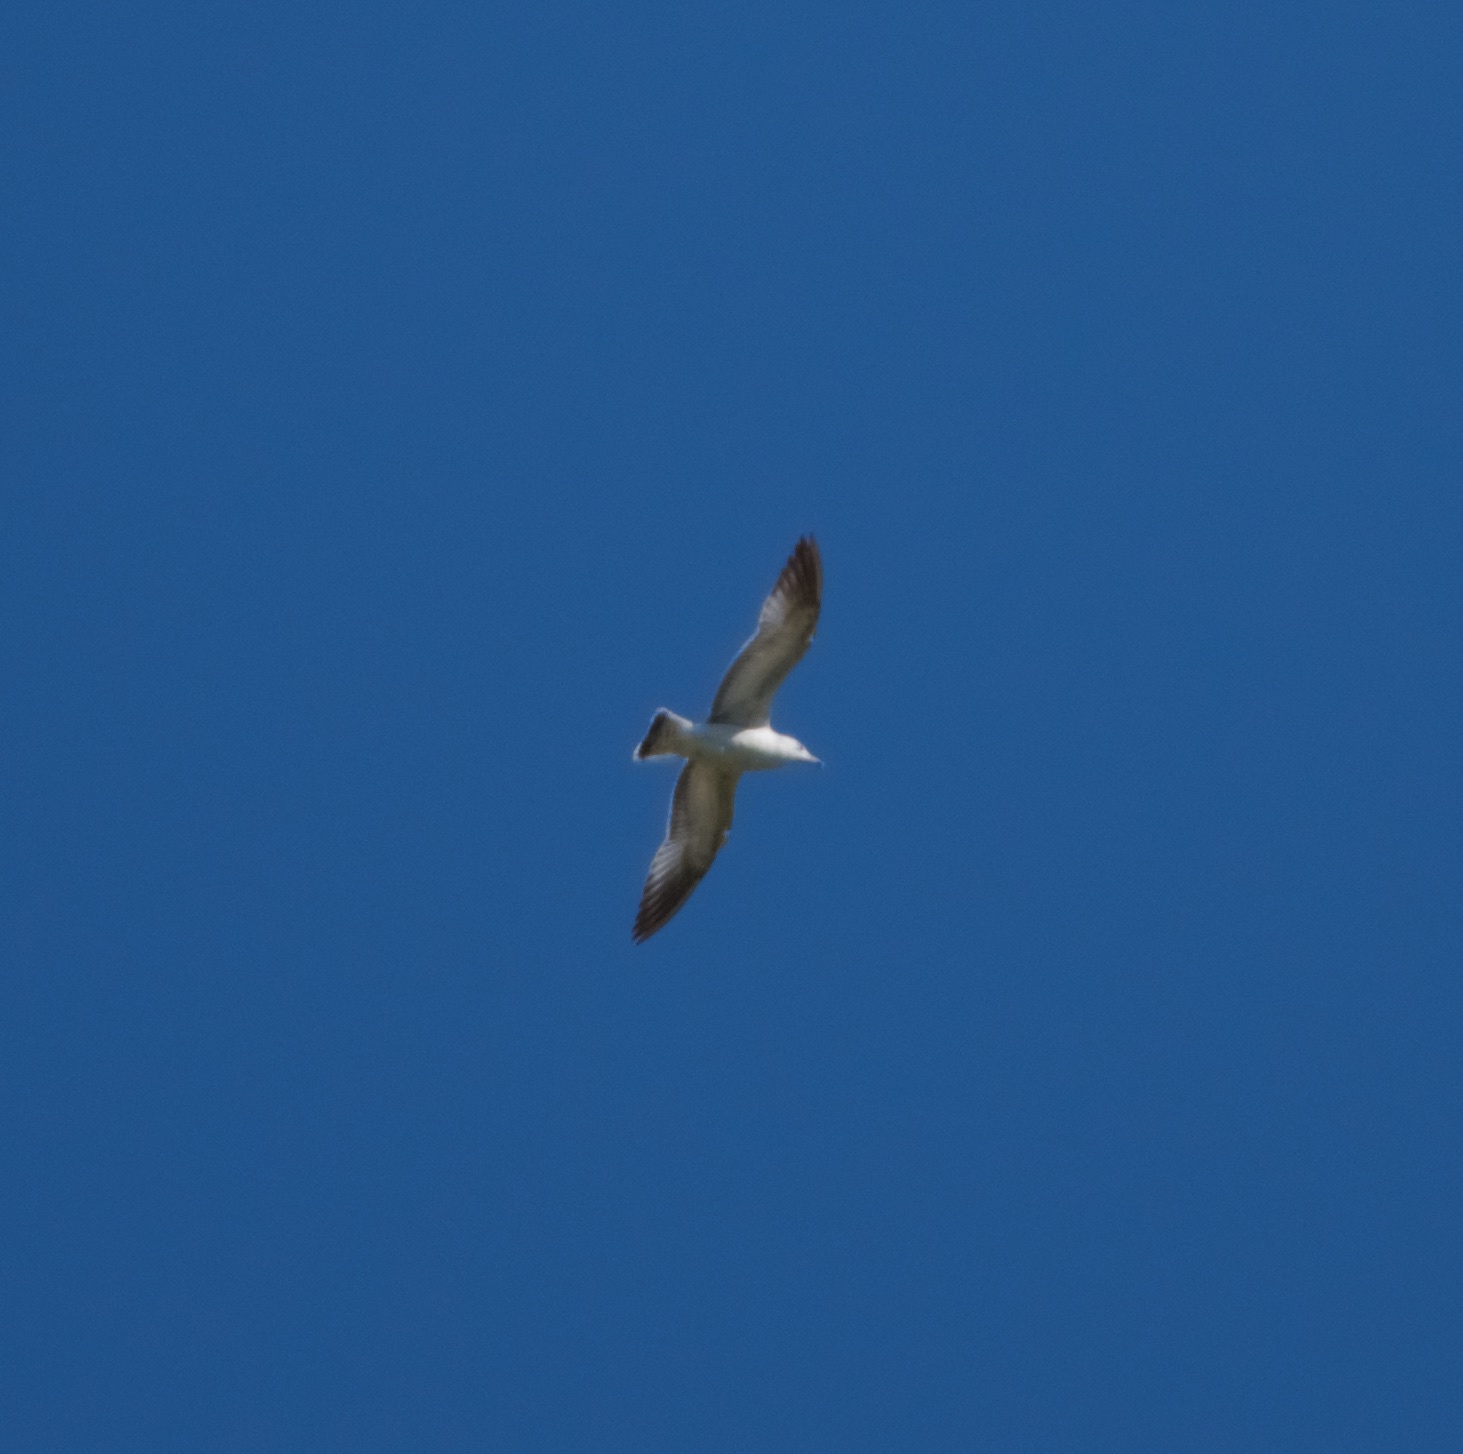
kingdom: Animalia
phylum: Chordata
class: Aves
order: Charadriiformes
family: Laridae
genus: Larus
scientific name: Larus delawarensis
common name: Ring-billed gull
